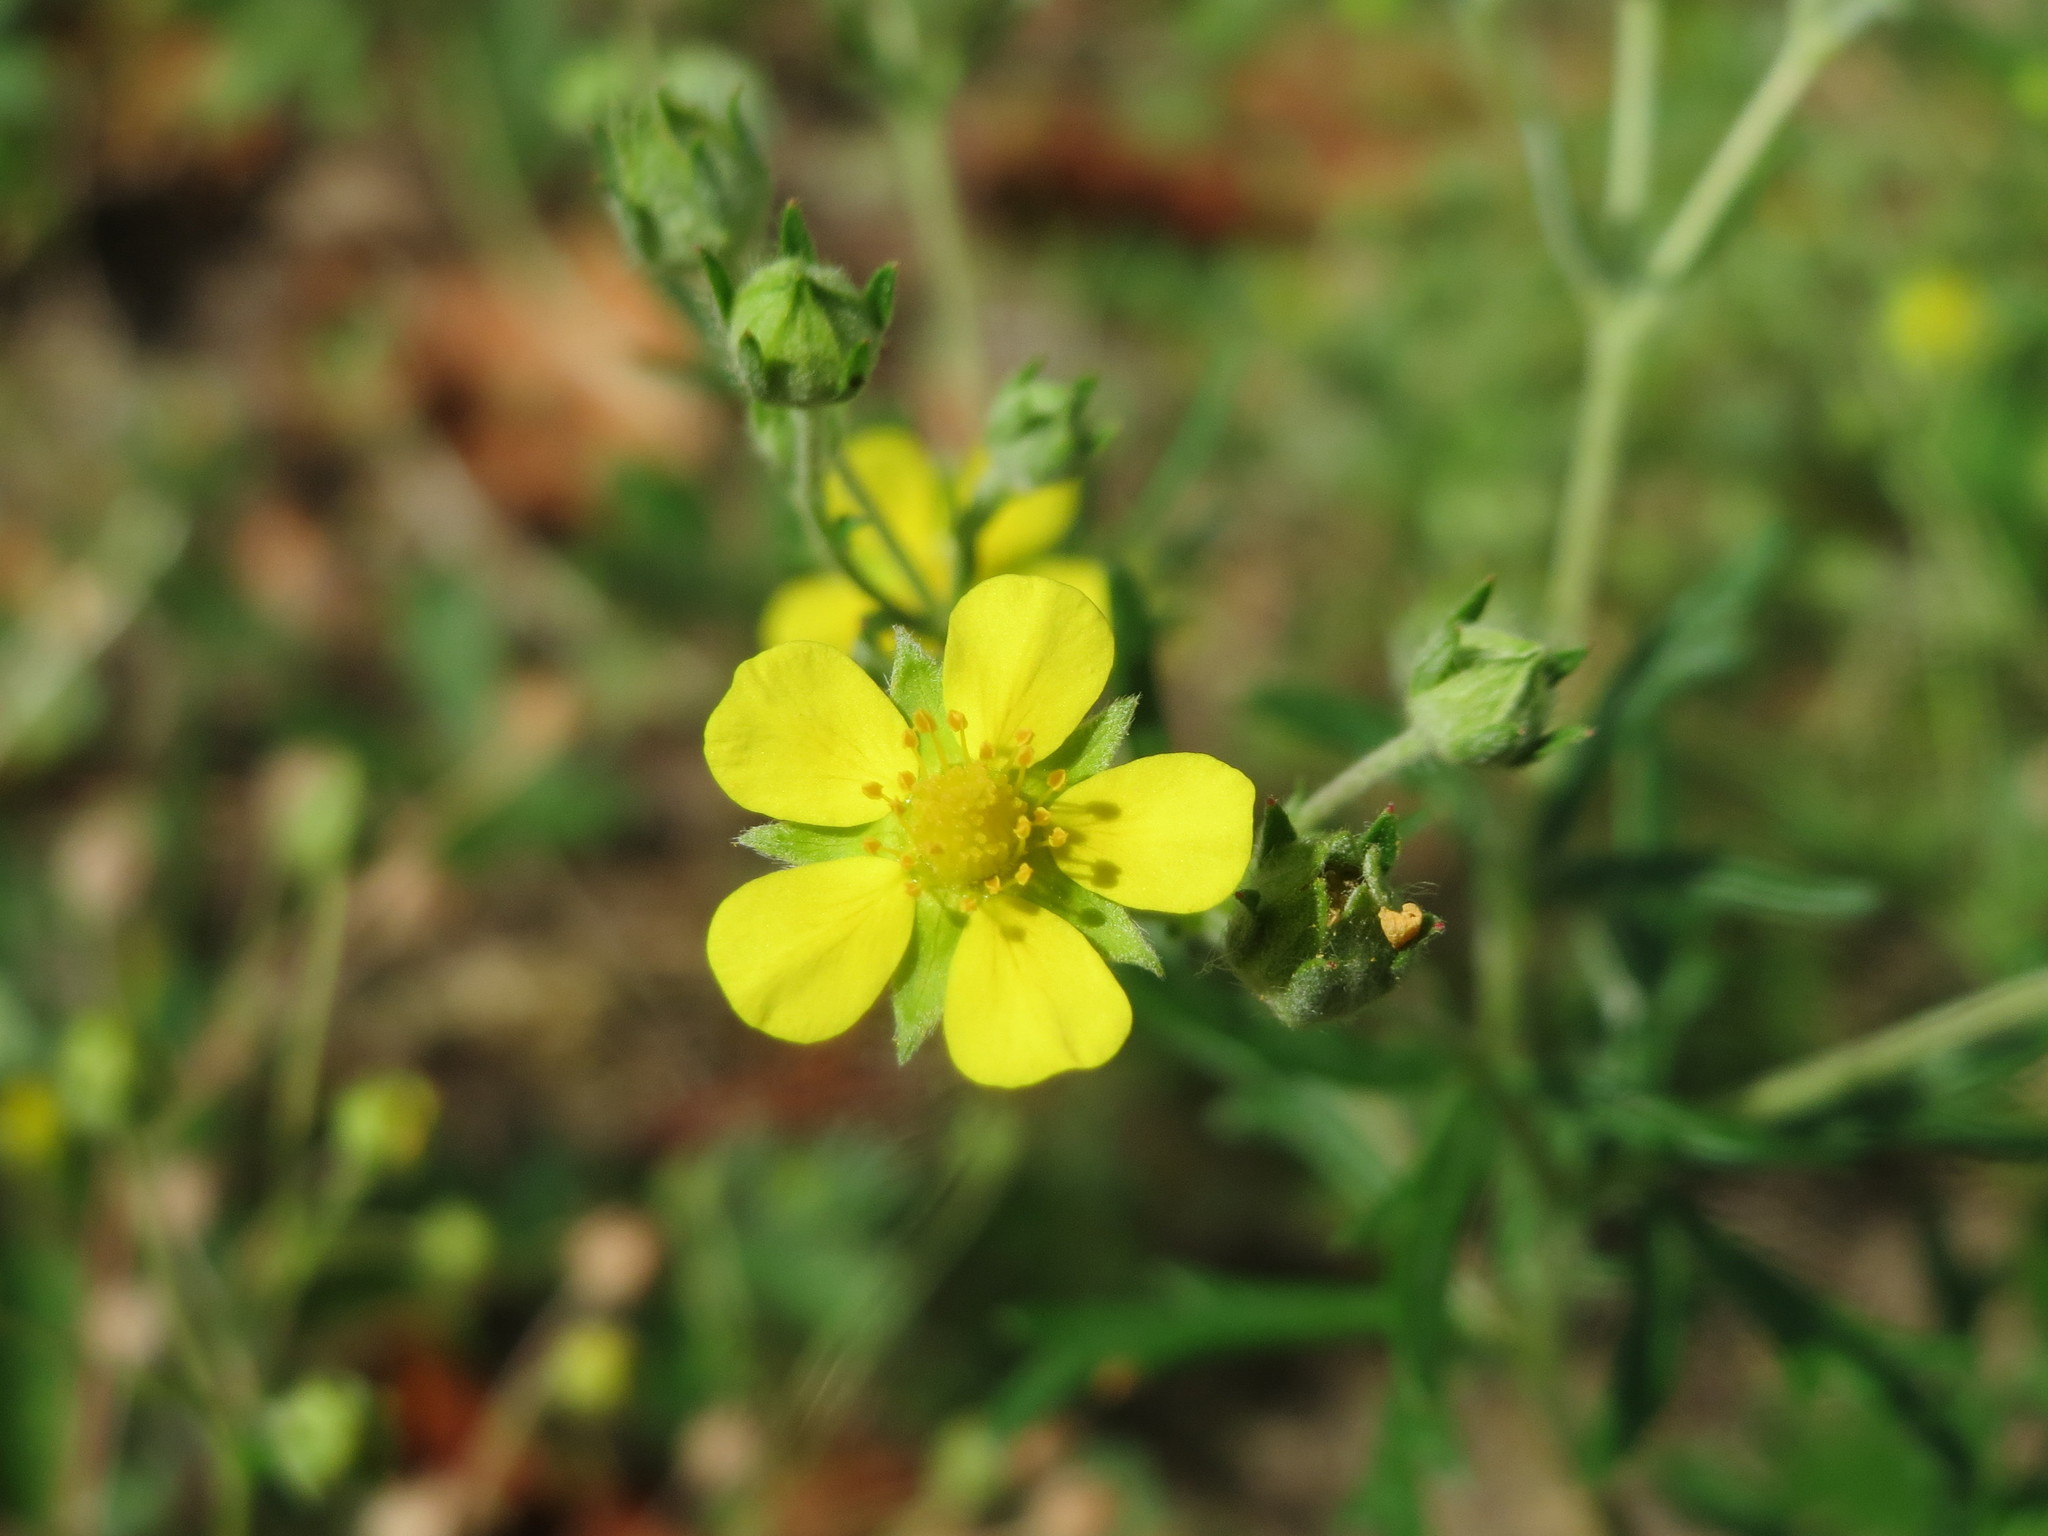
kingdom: Plantae
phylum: Tracheophyta
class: Magnoliopsida
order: Rosales
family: Rosaceae
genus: Potentilla
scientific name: Potentilla argentea
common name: Hoary cinquefoil
